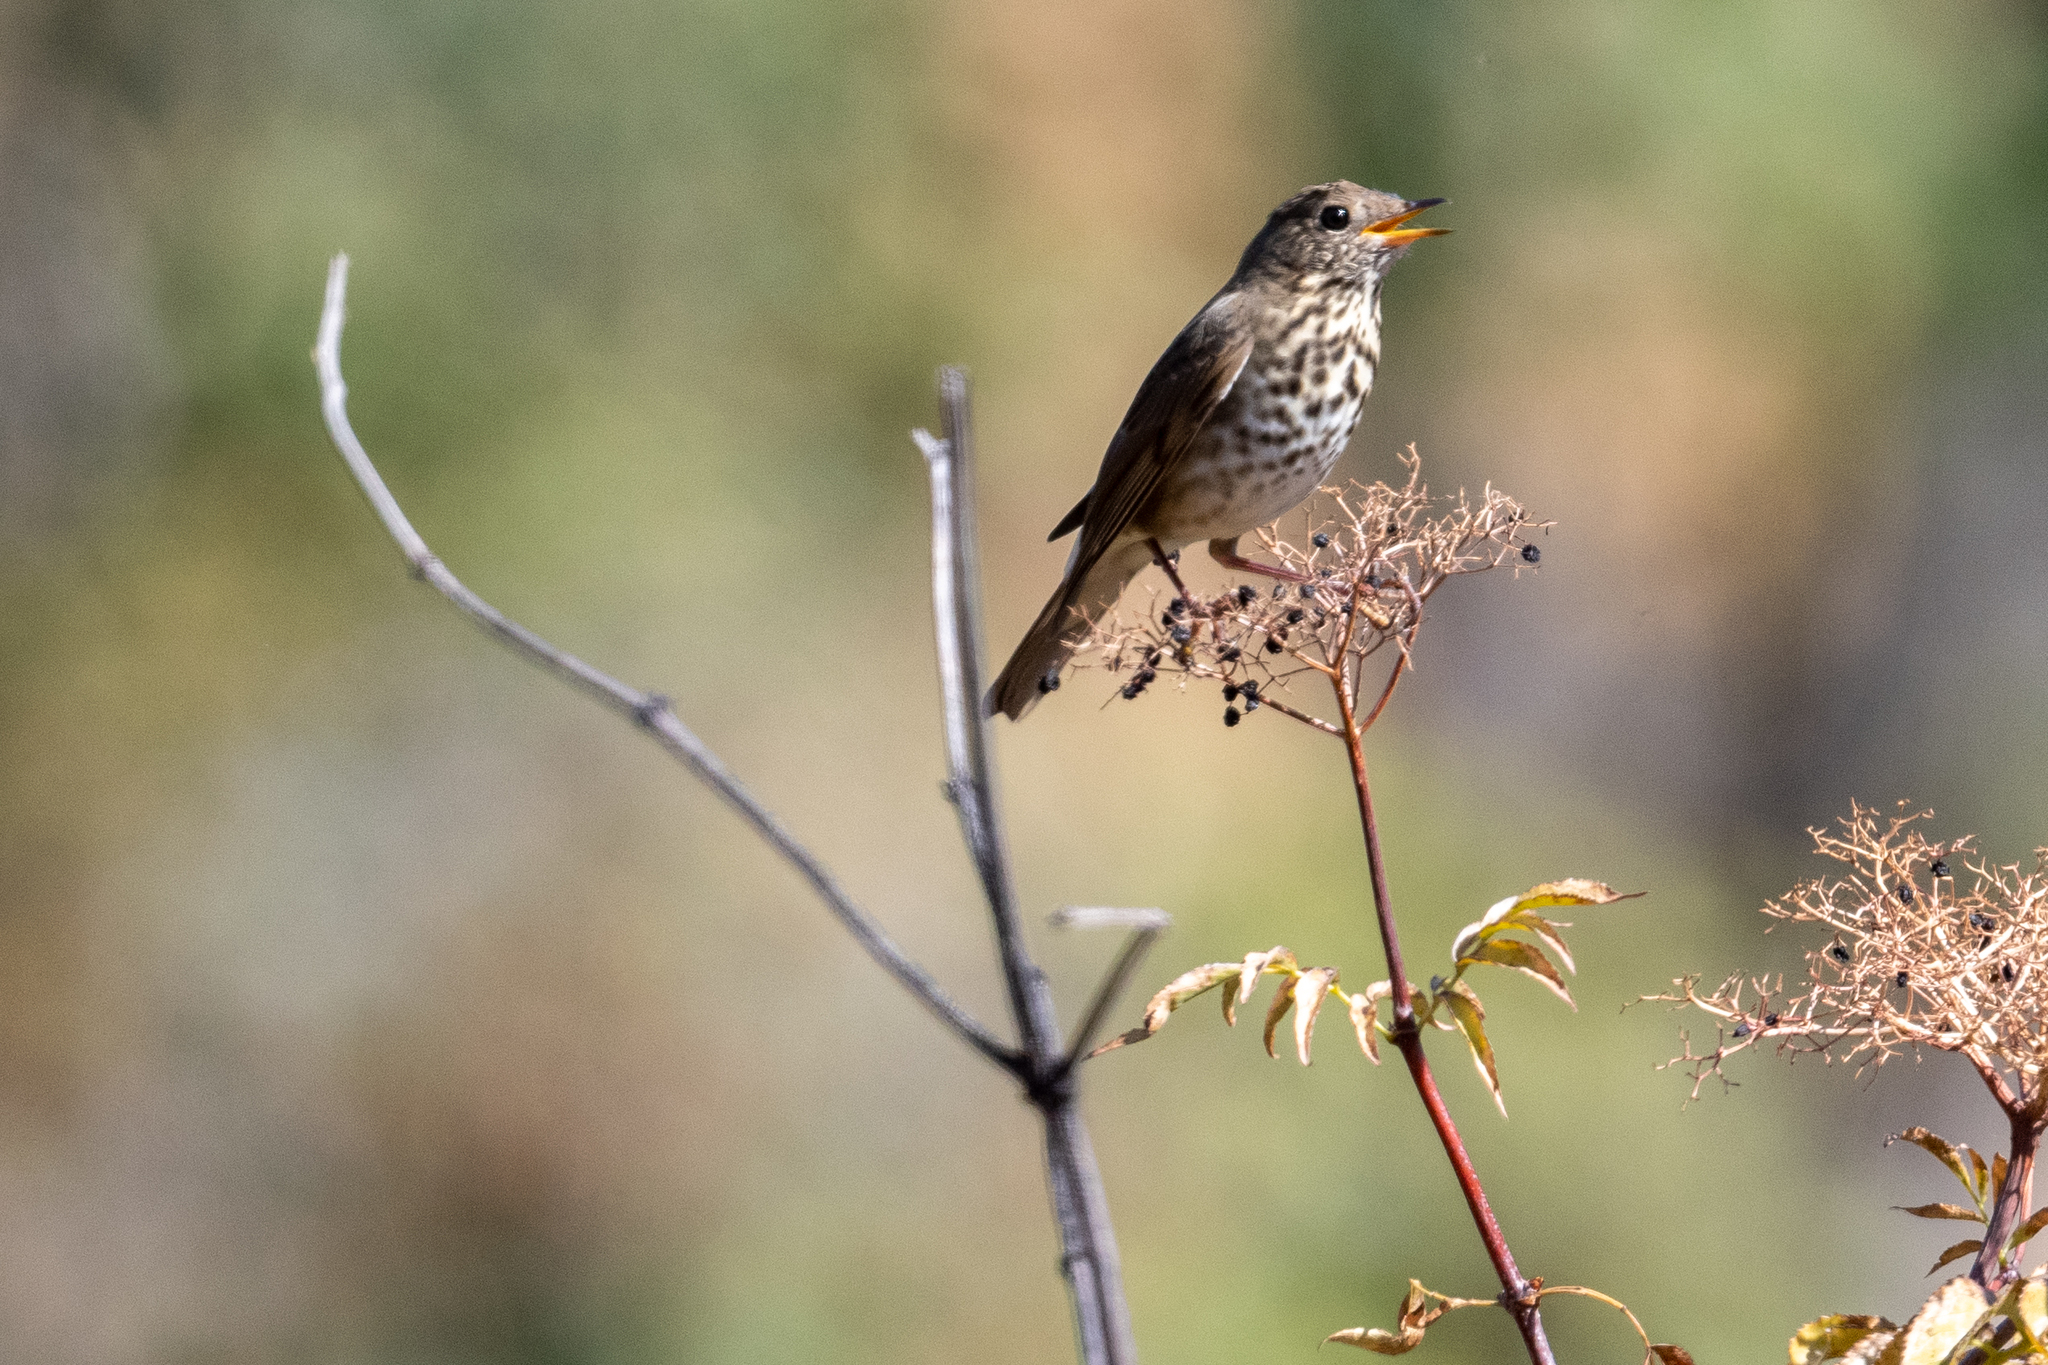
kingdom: Animalia
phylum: Chordata
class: Aves
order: Passeriformes
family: Turdidae
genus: Catharus
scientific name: Catharus guttatus
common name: Hermit thrush
